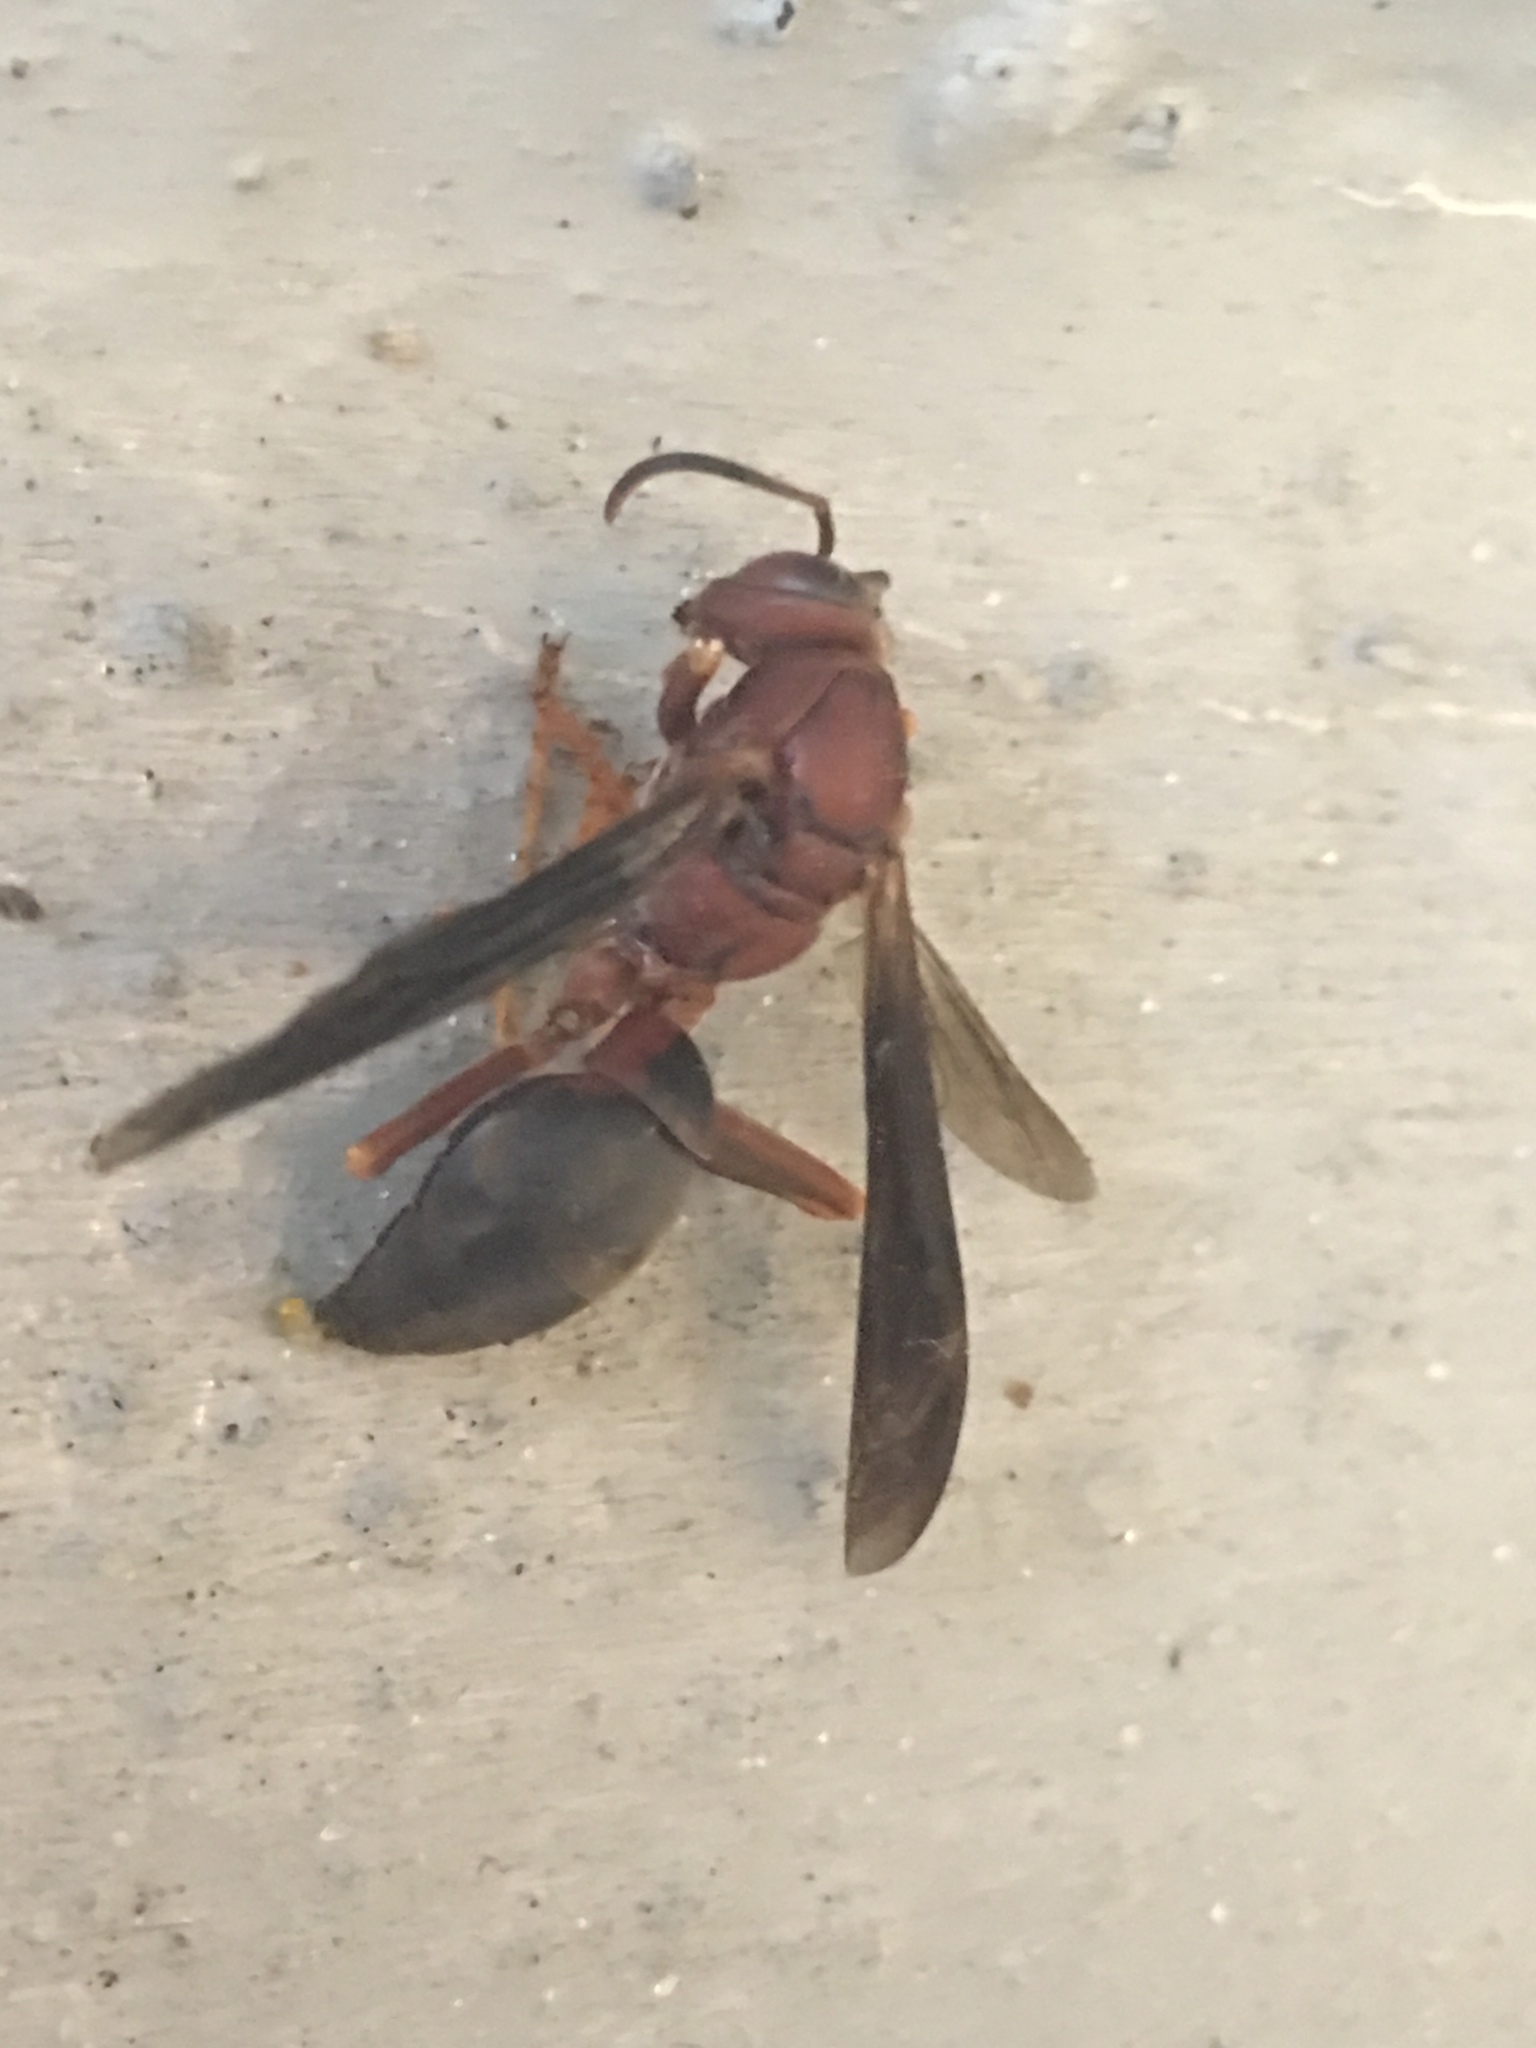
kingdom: Animalia
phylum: Arthropoda
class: Insecta
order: Hymenoptera
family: Eumenidae
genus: Polistes
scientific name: Polistes metricus
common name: Metric paper wasp
